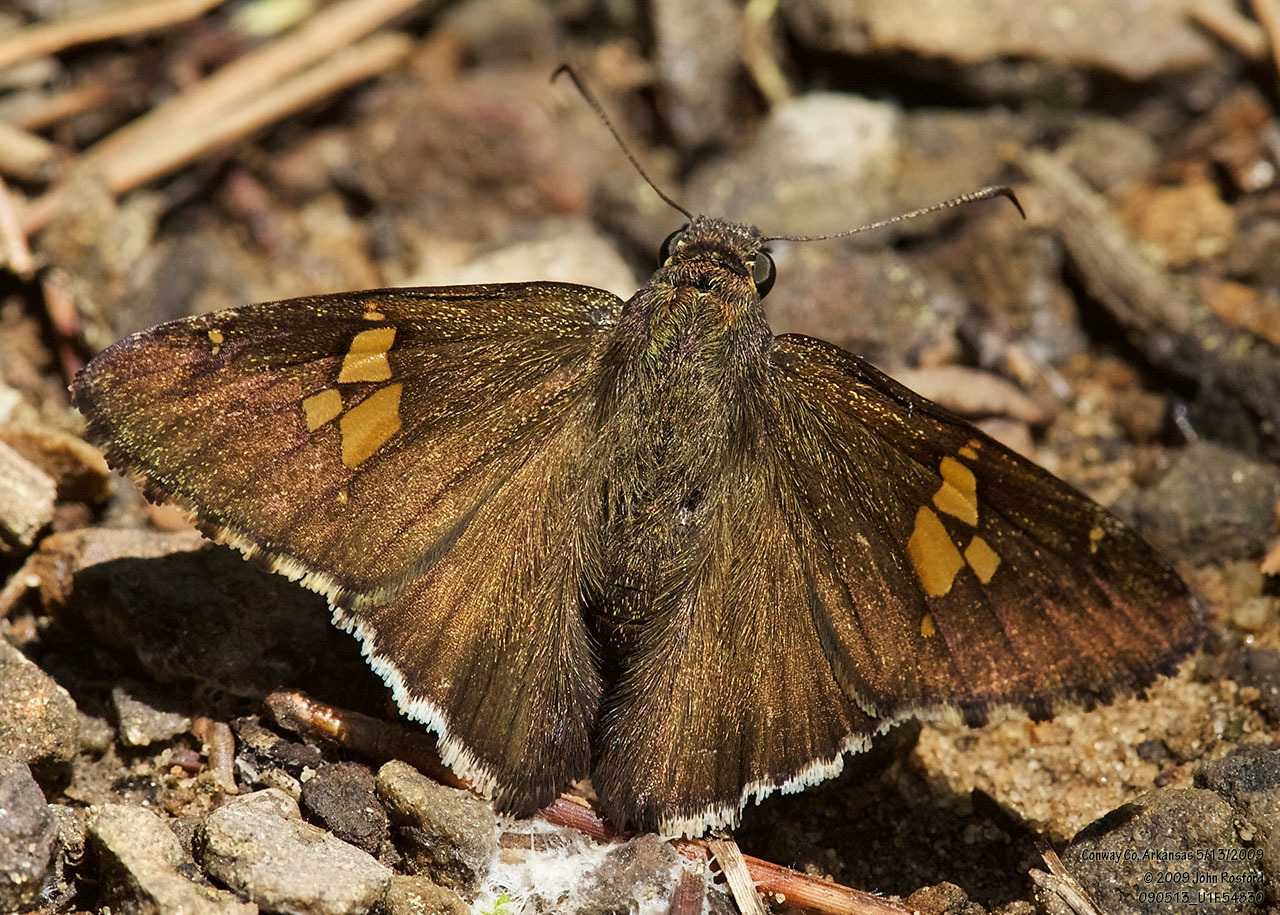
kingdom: Animalia
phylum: Arthropoda
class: Insecta
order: Lepidoptera
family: Hesperiidae
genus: Thorybes
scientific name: Thorybes lyciades
